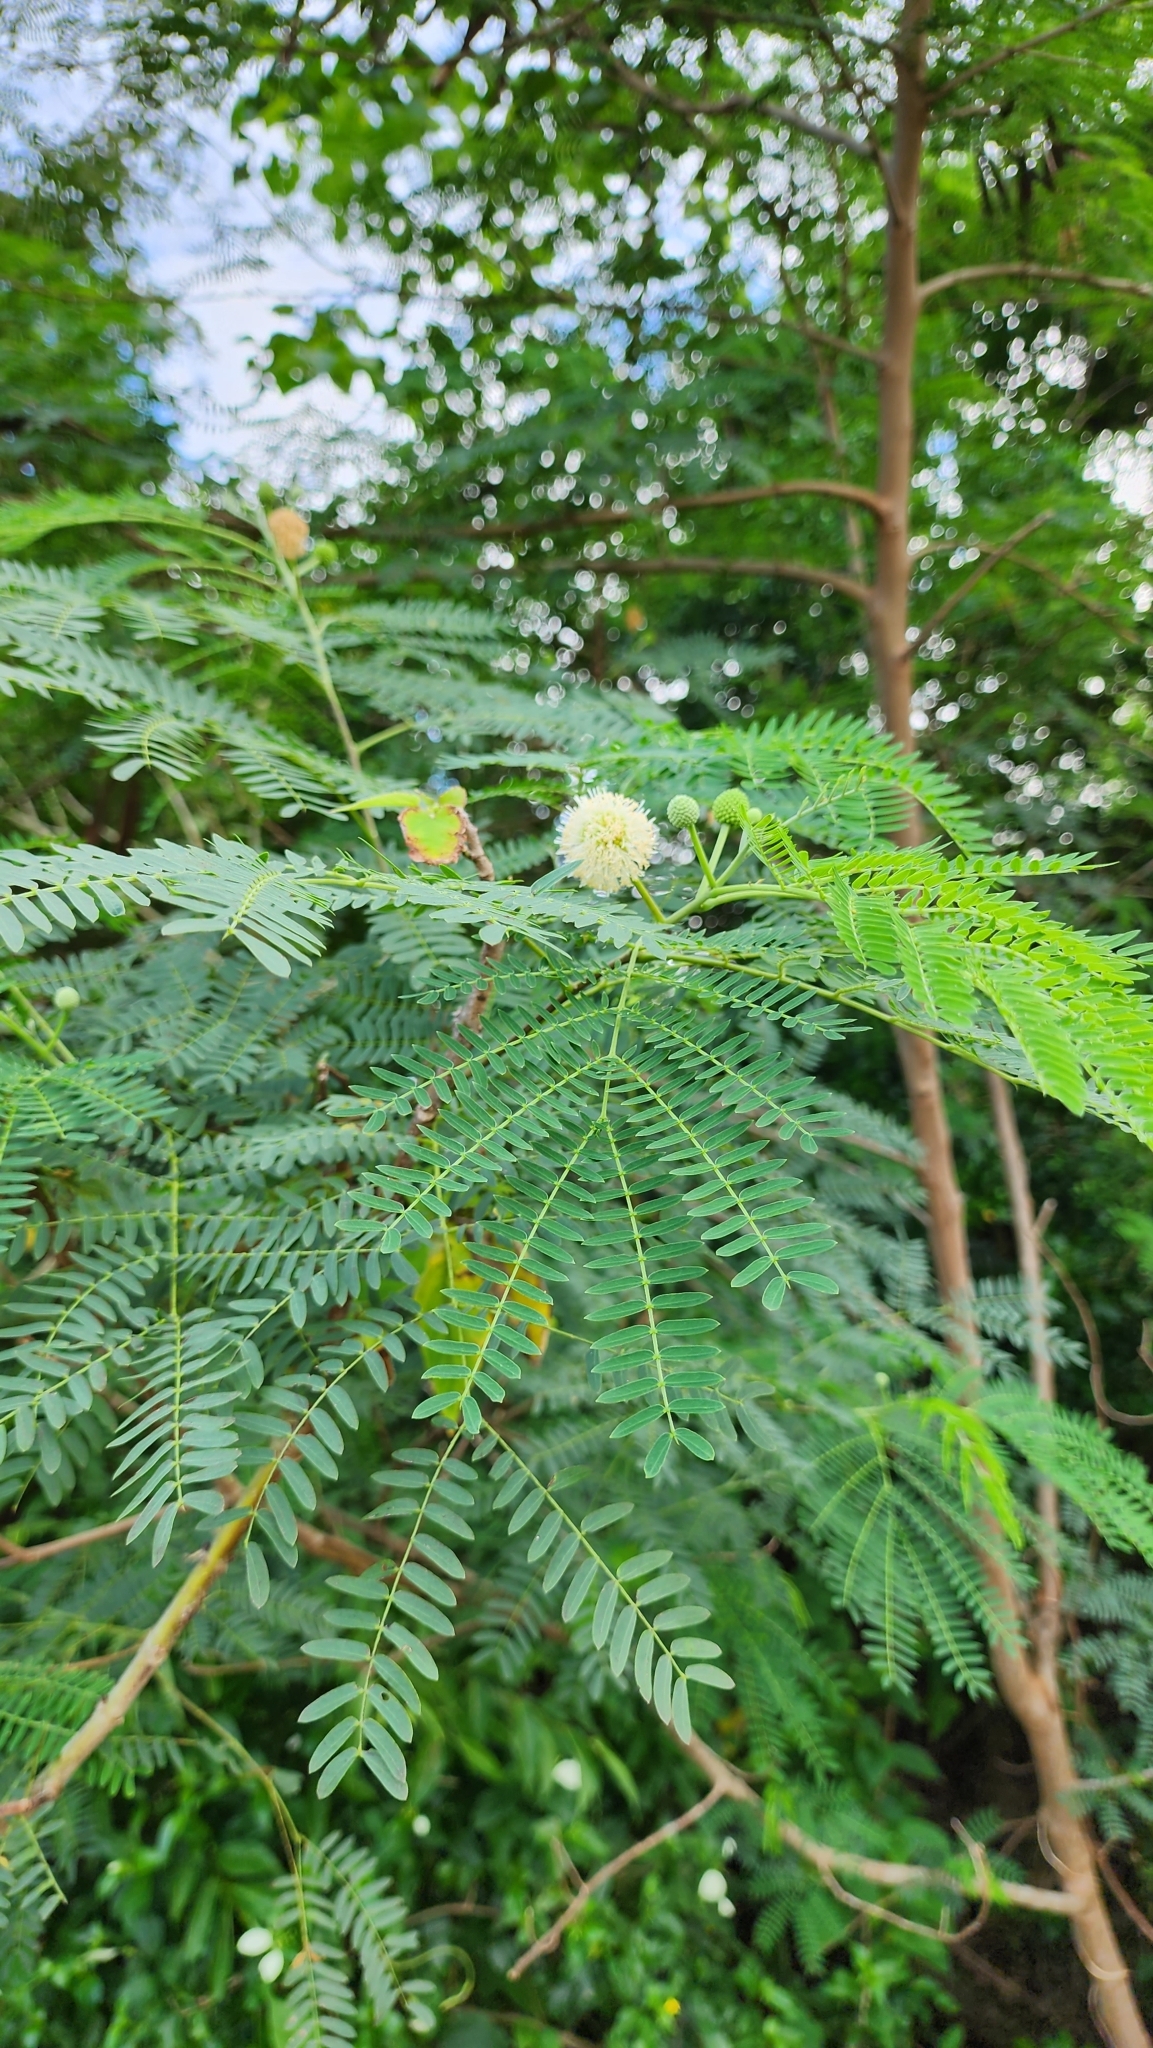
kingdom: Plantae
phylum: Tracheophyta
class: Magnoliopsida
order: Fabales
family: Fabaceae
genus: Leucaena
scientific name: Leucaena leucocephala
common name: White leadtree
